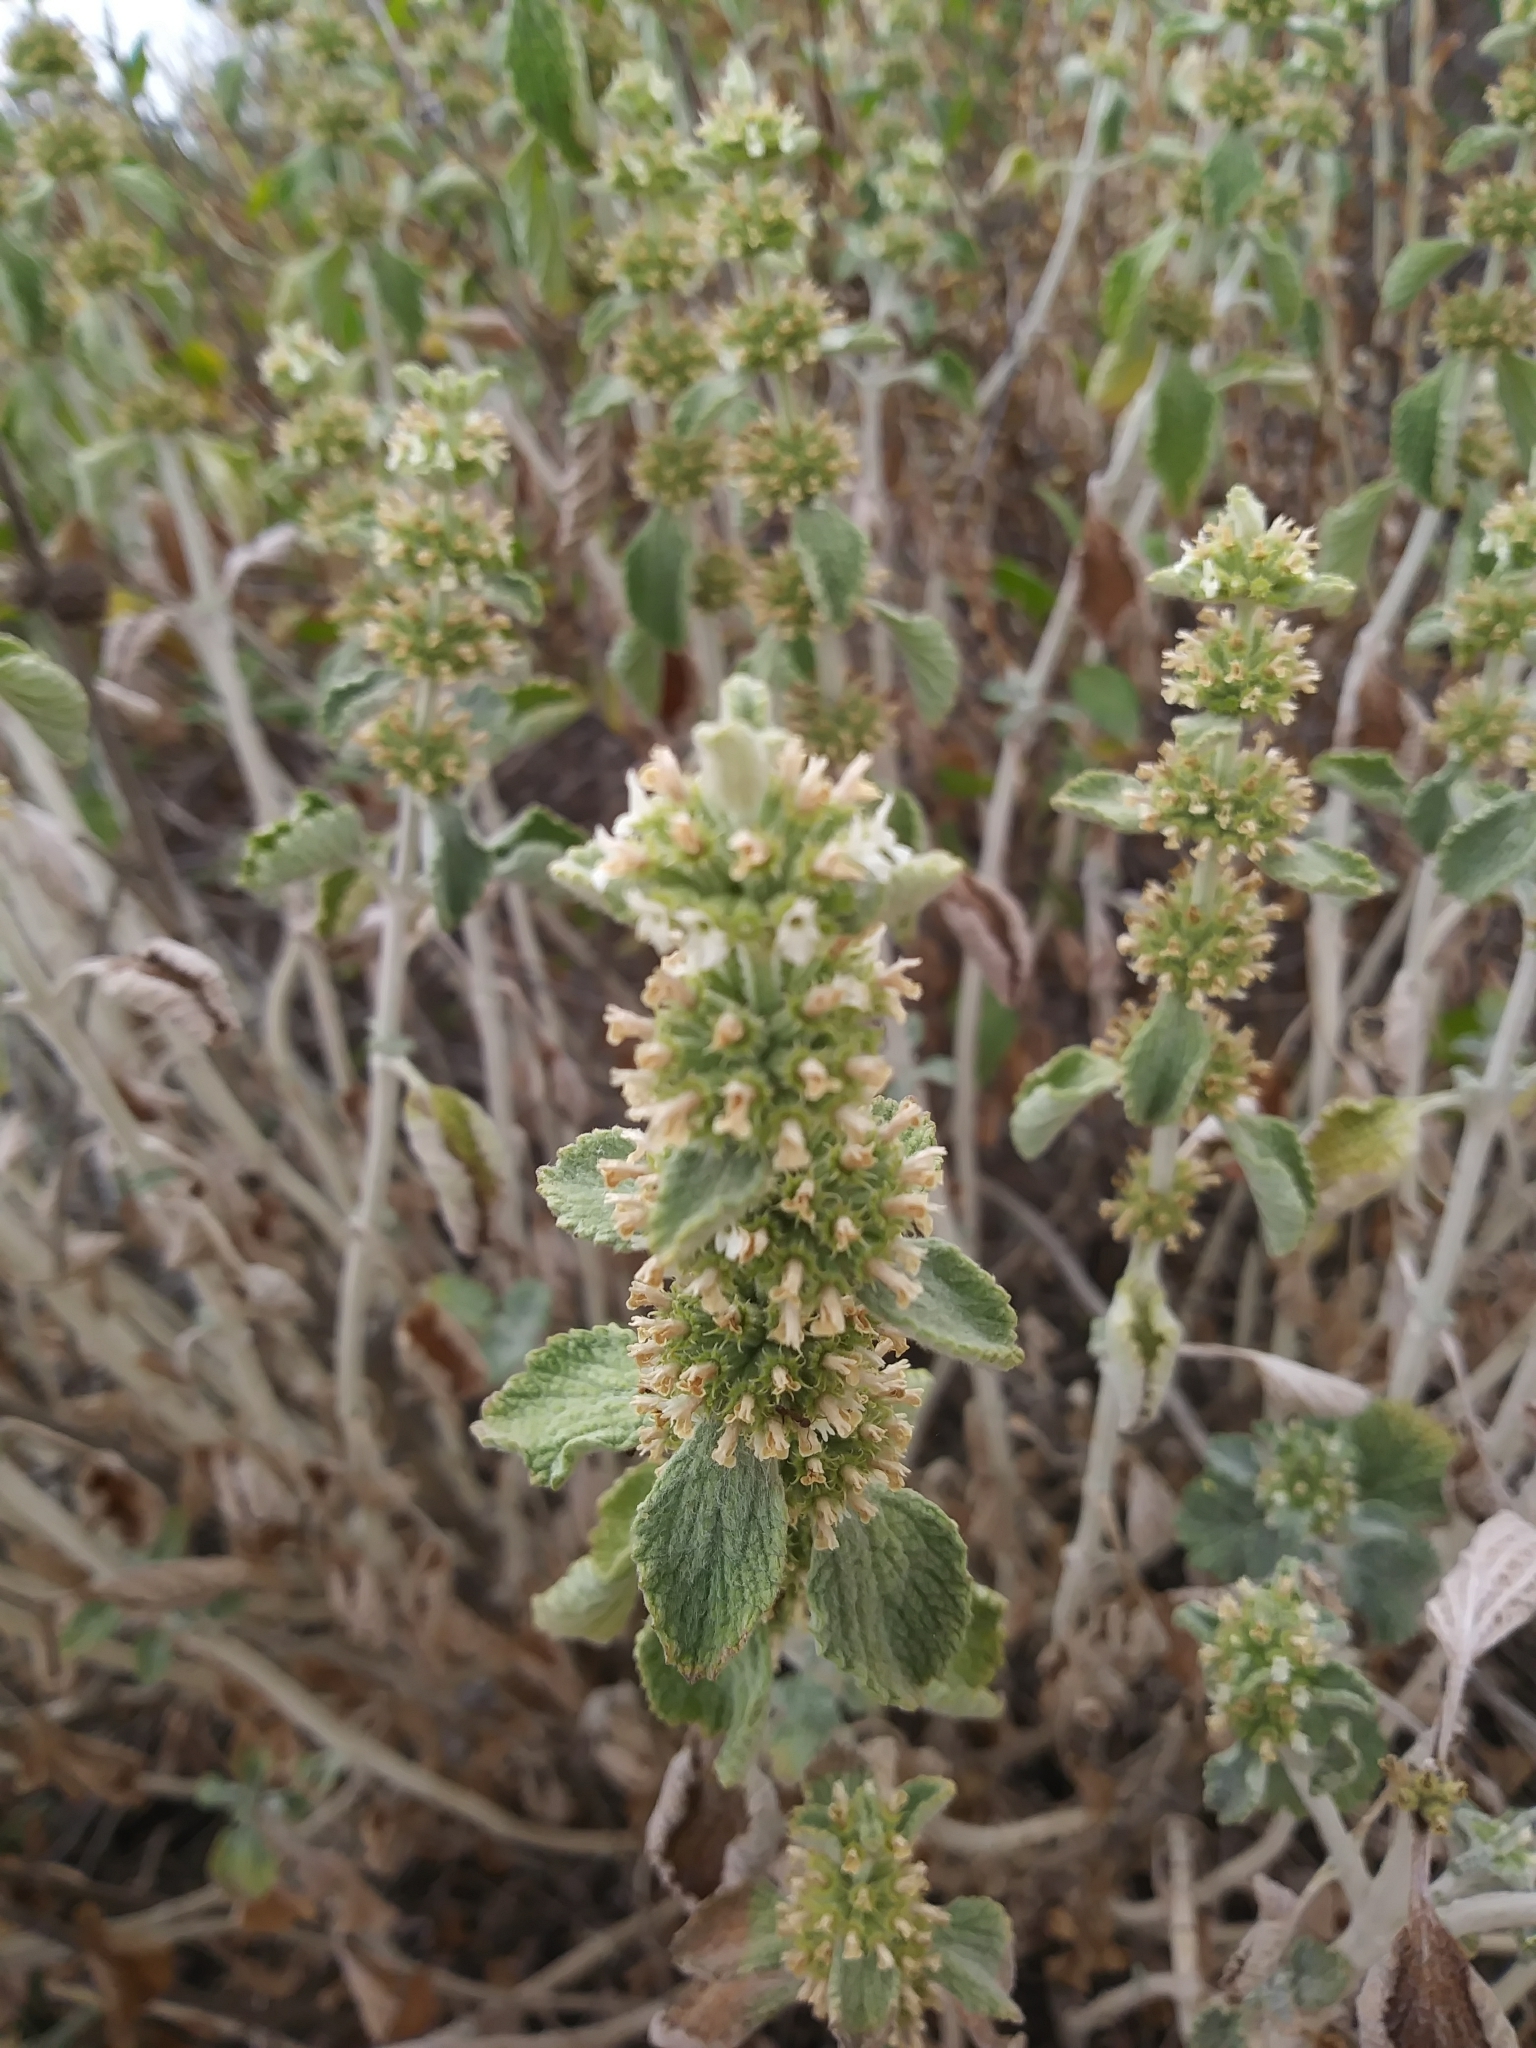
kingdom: Plantae
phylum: Tracheophyta
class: Magnoliopsida
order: Lamiales
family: Lamiaceae
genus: Marrubium
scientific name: Marrubium vulgare
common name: Horehound
